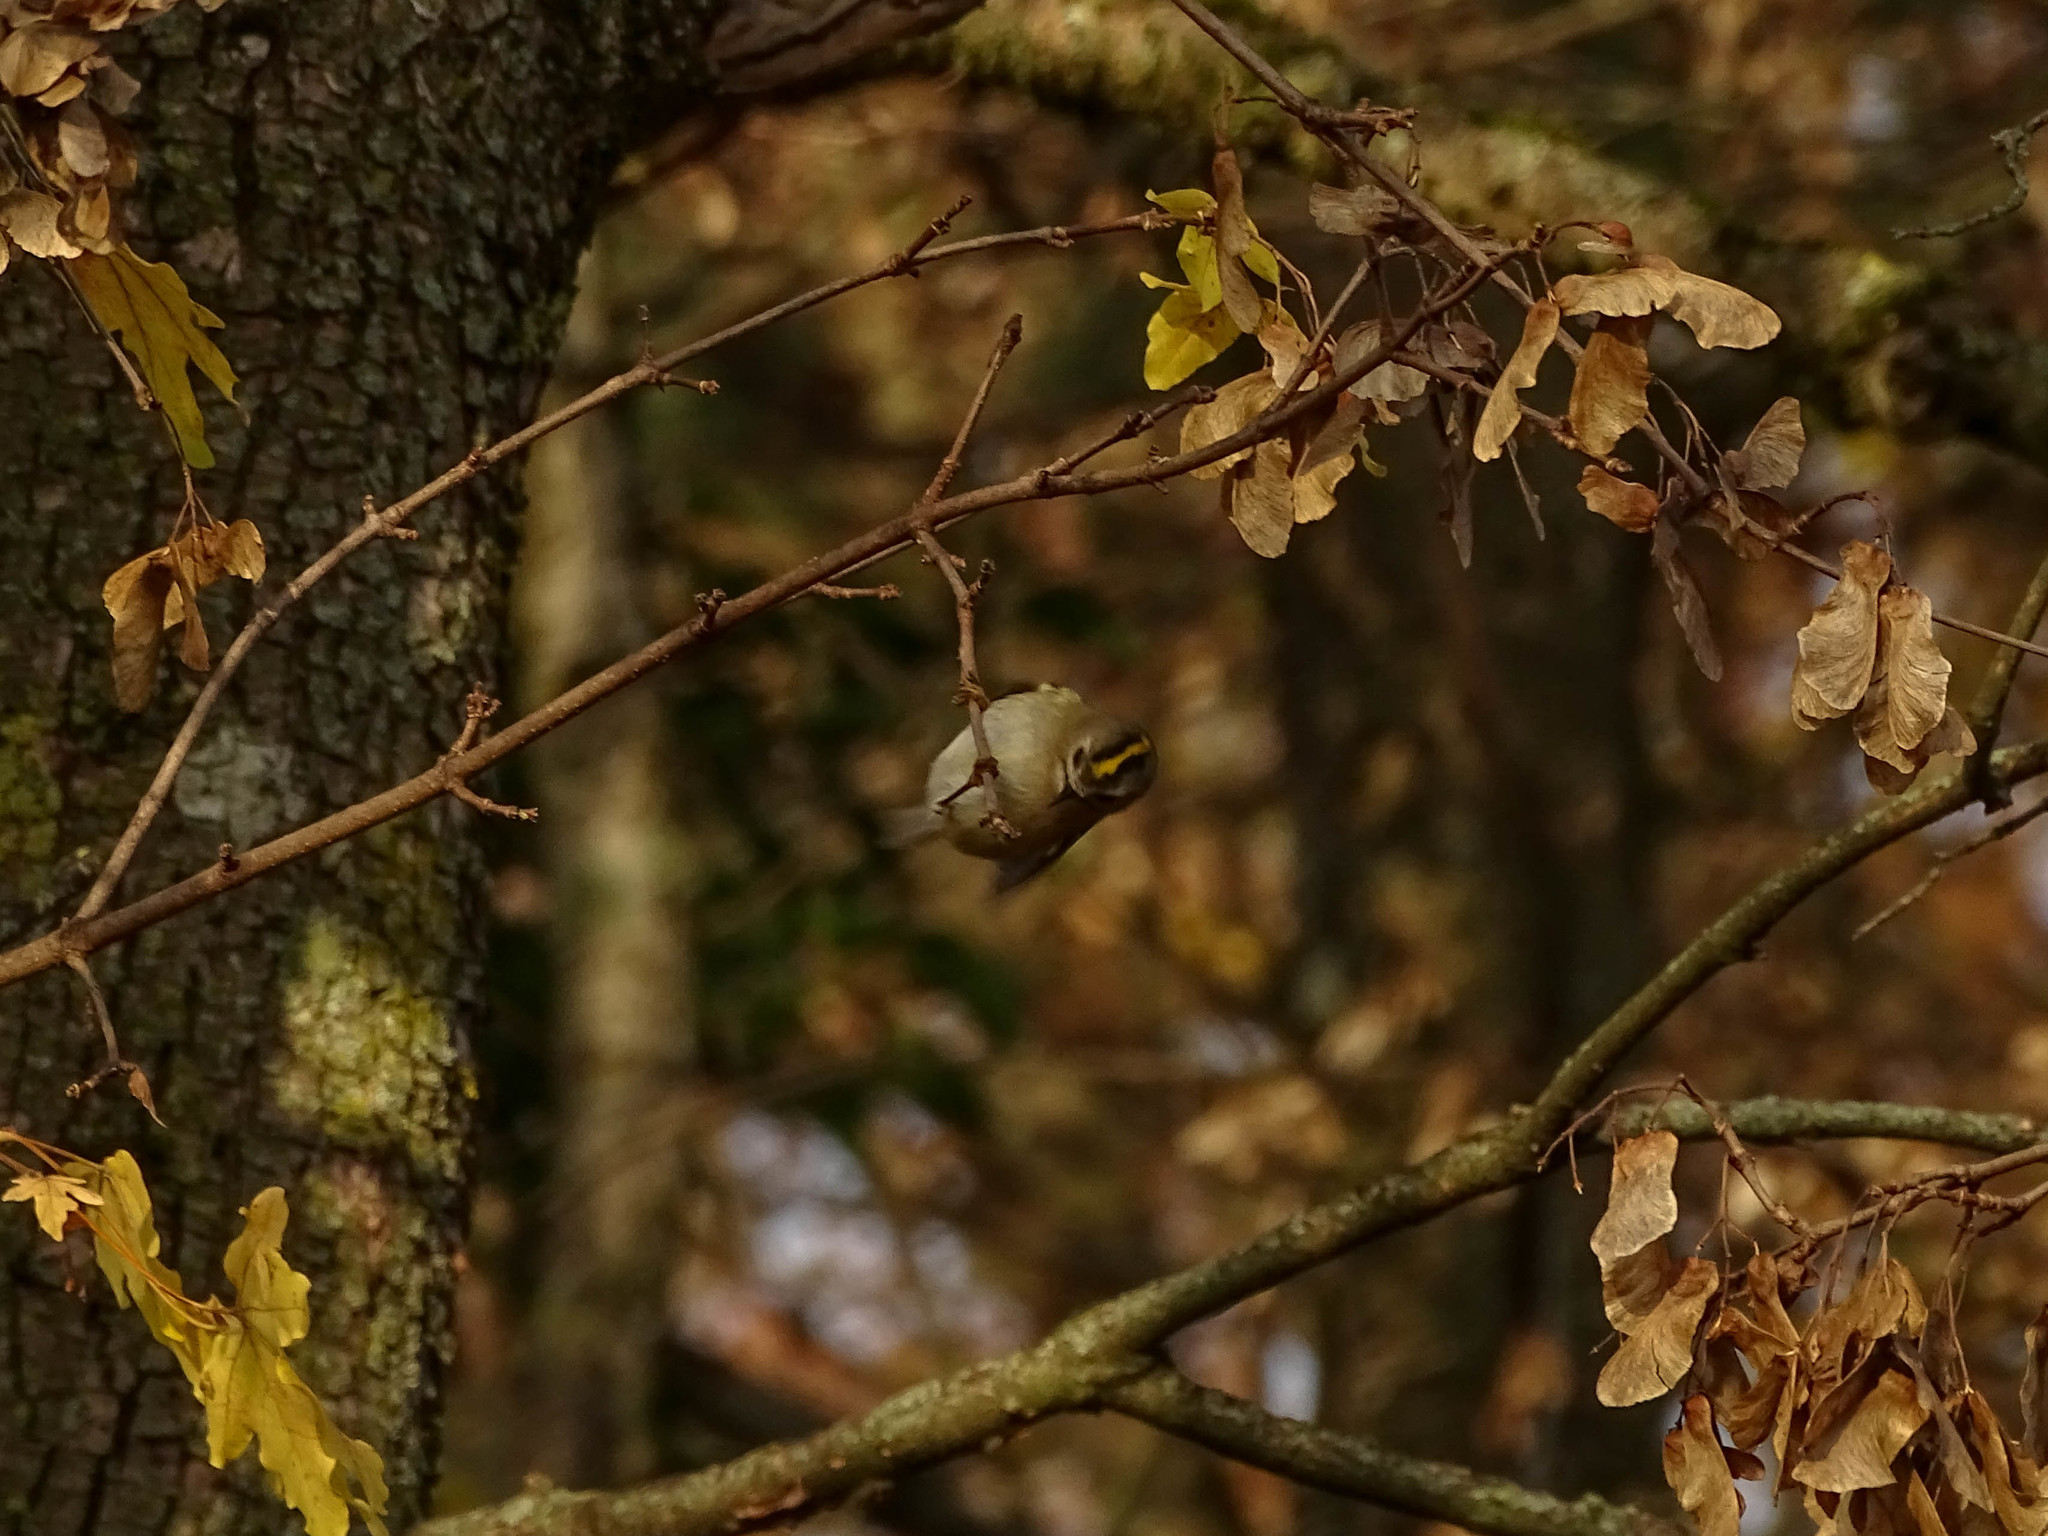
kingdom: Animalia
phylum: Chordata
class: Aves
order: Passeriformes
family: Regulidae
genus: Regulus
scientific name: Regulus regulus
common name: Goldcrest
